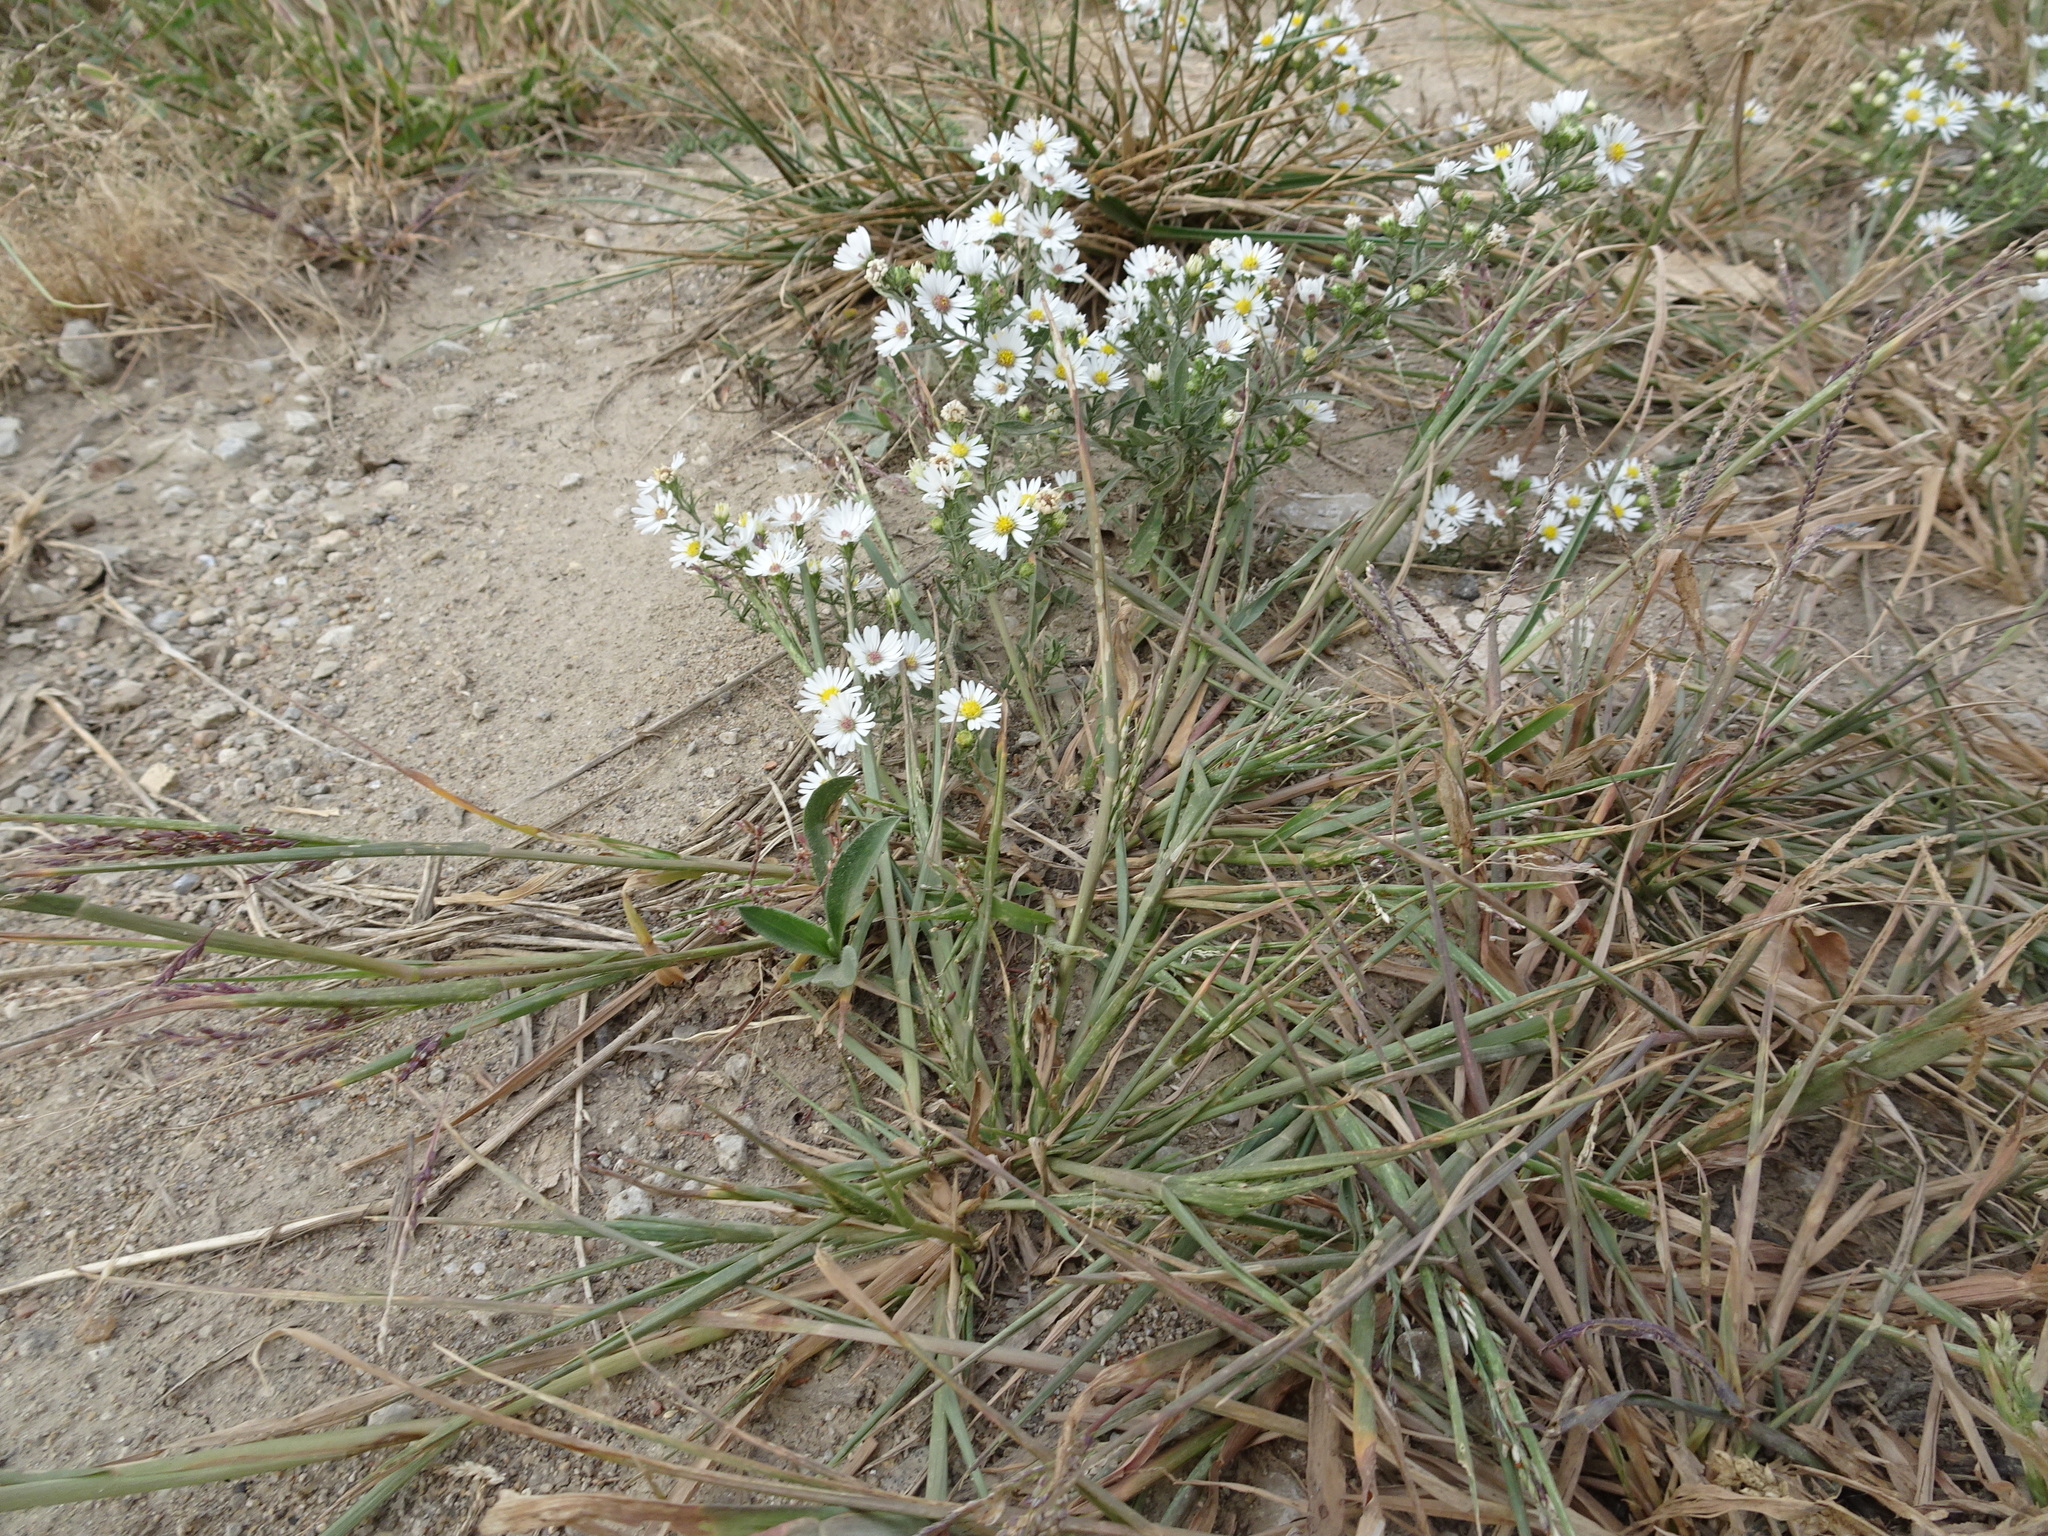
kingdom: Plantae
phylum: Tracheophyta
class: Liliopsida
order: Poales
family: Poaceae
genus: Panicum
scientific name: Panicum dichotomiflorum
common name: Autumn millet
